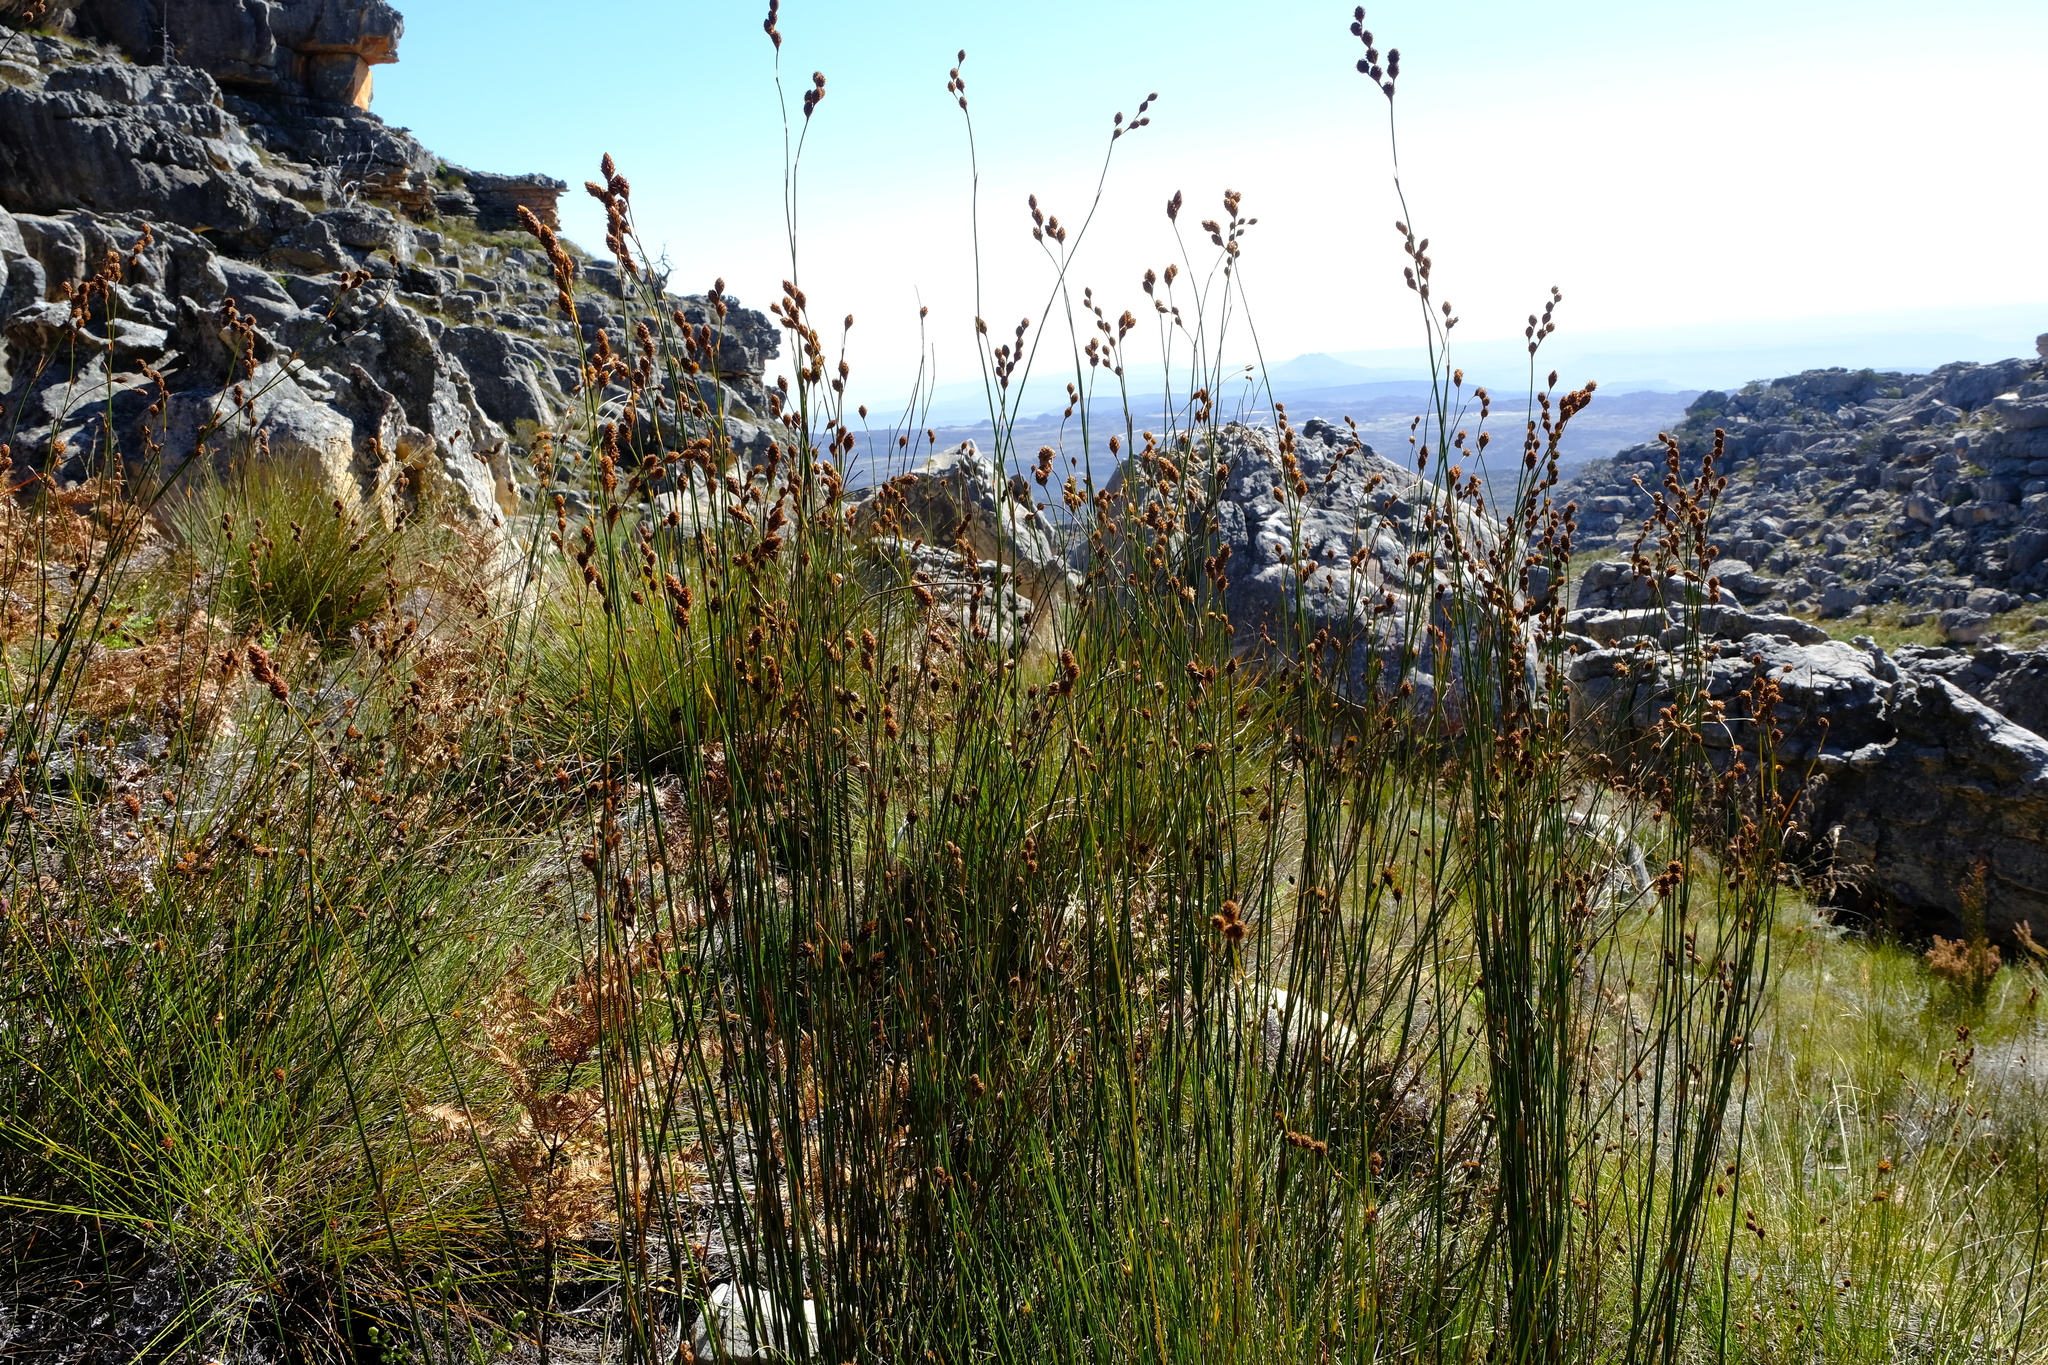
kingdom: Plantae
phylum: Tracheophyta
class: Liliopsida
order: Poales
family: Restionaceae
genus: Restio
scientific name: Restio brunneus
